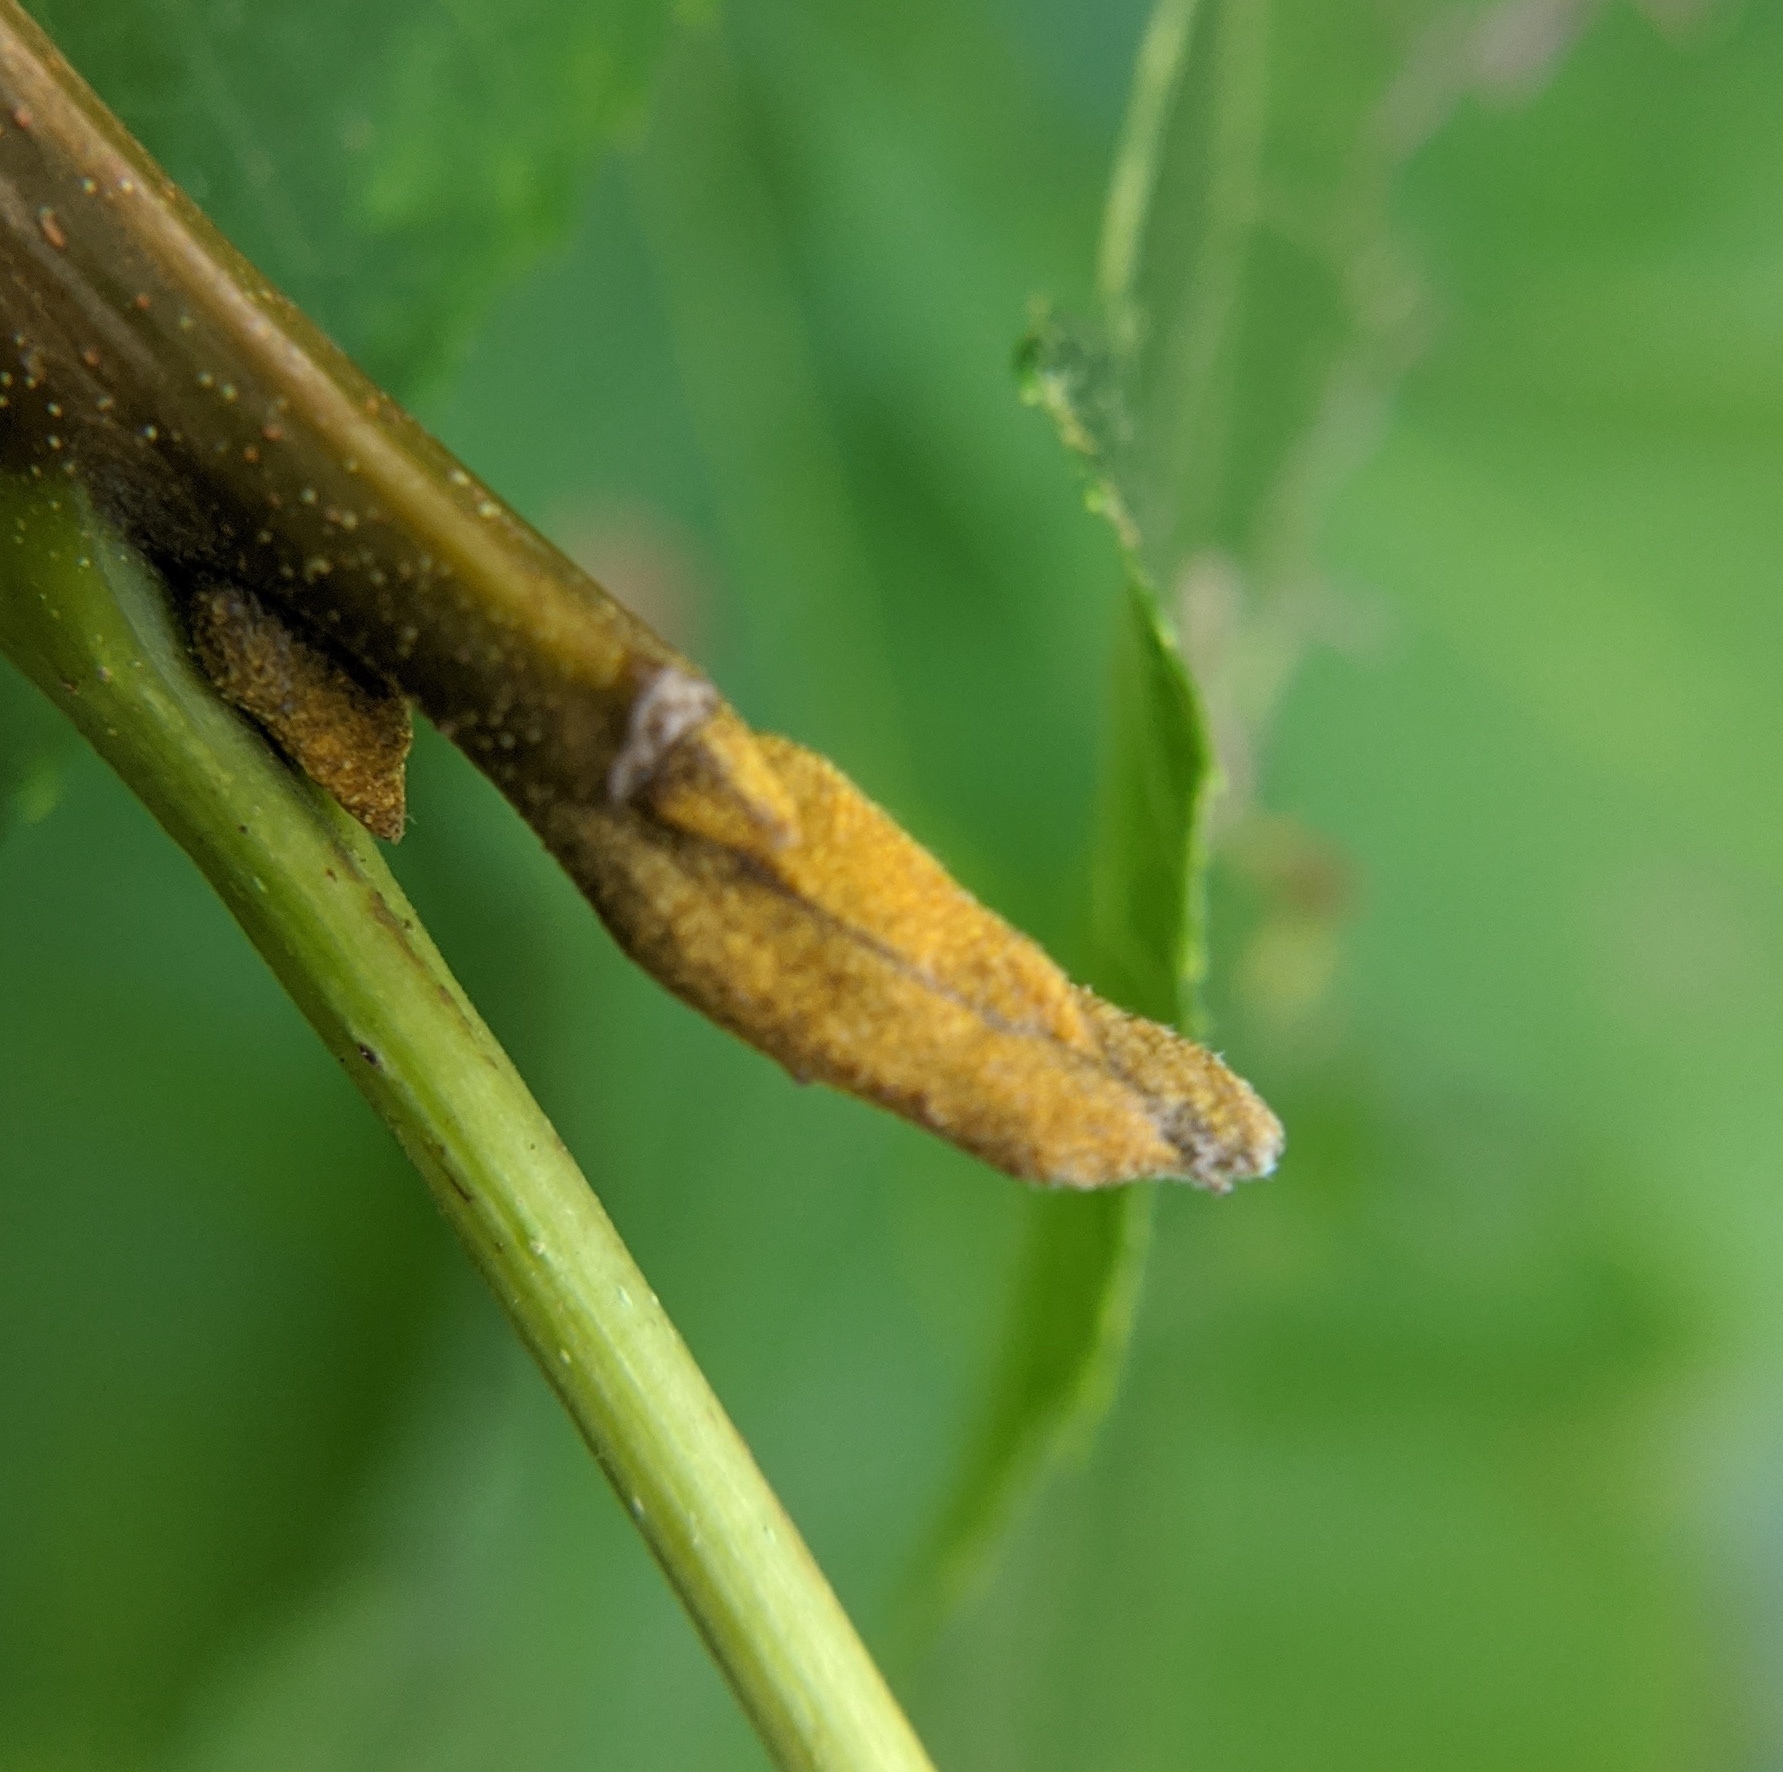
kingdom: Plantae
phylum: Tracheophyta
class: Magnoliopsida
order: Fagales
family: Juglandaceae
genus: Carya
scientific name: Carya cordiformis
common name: Bitternut hickory
